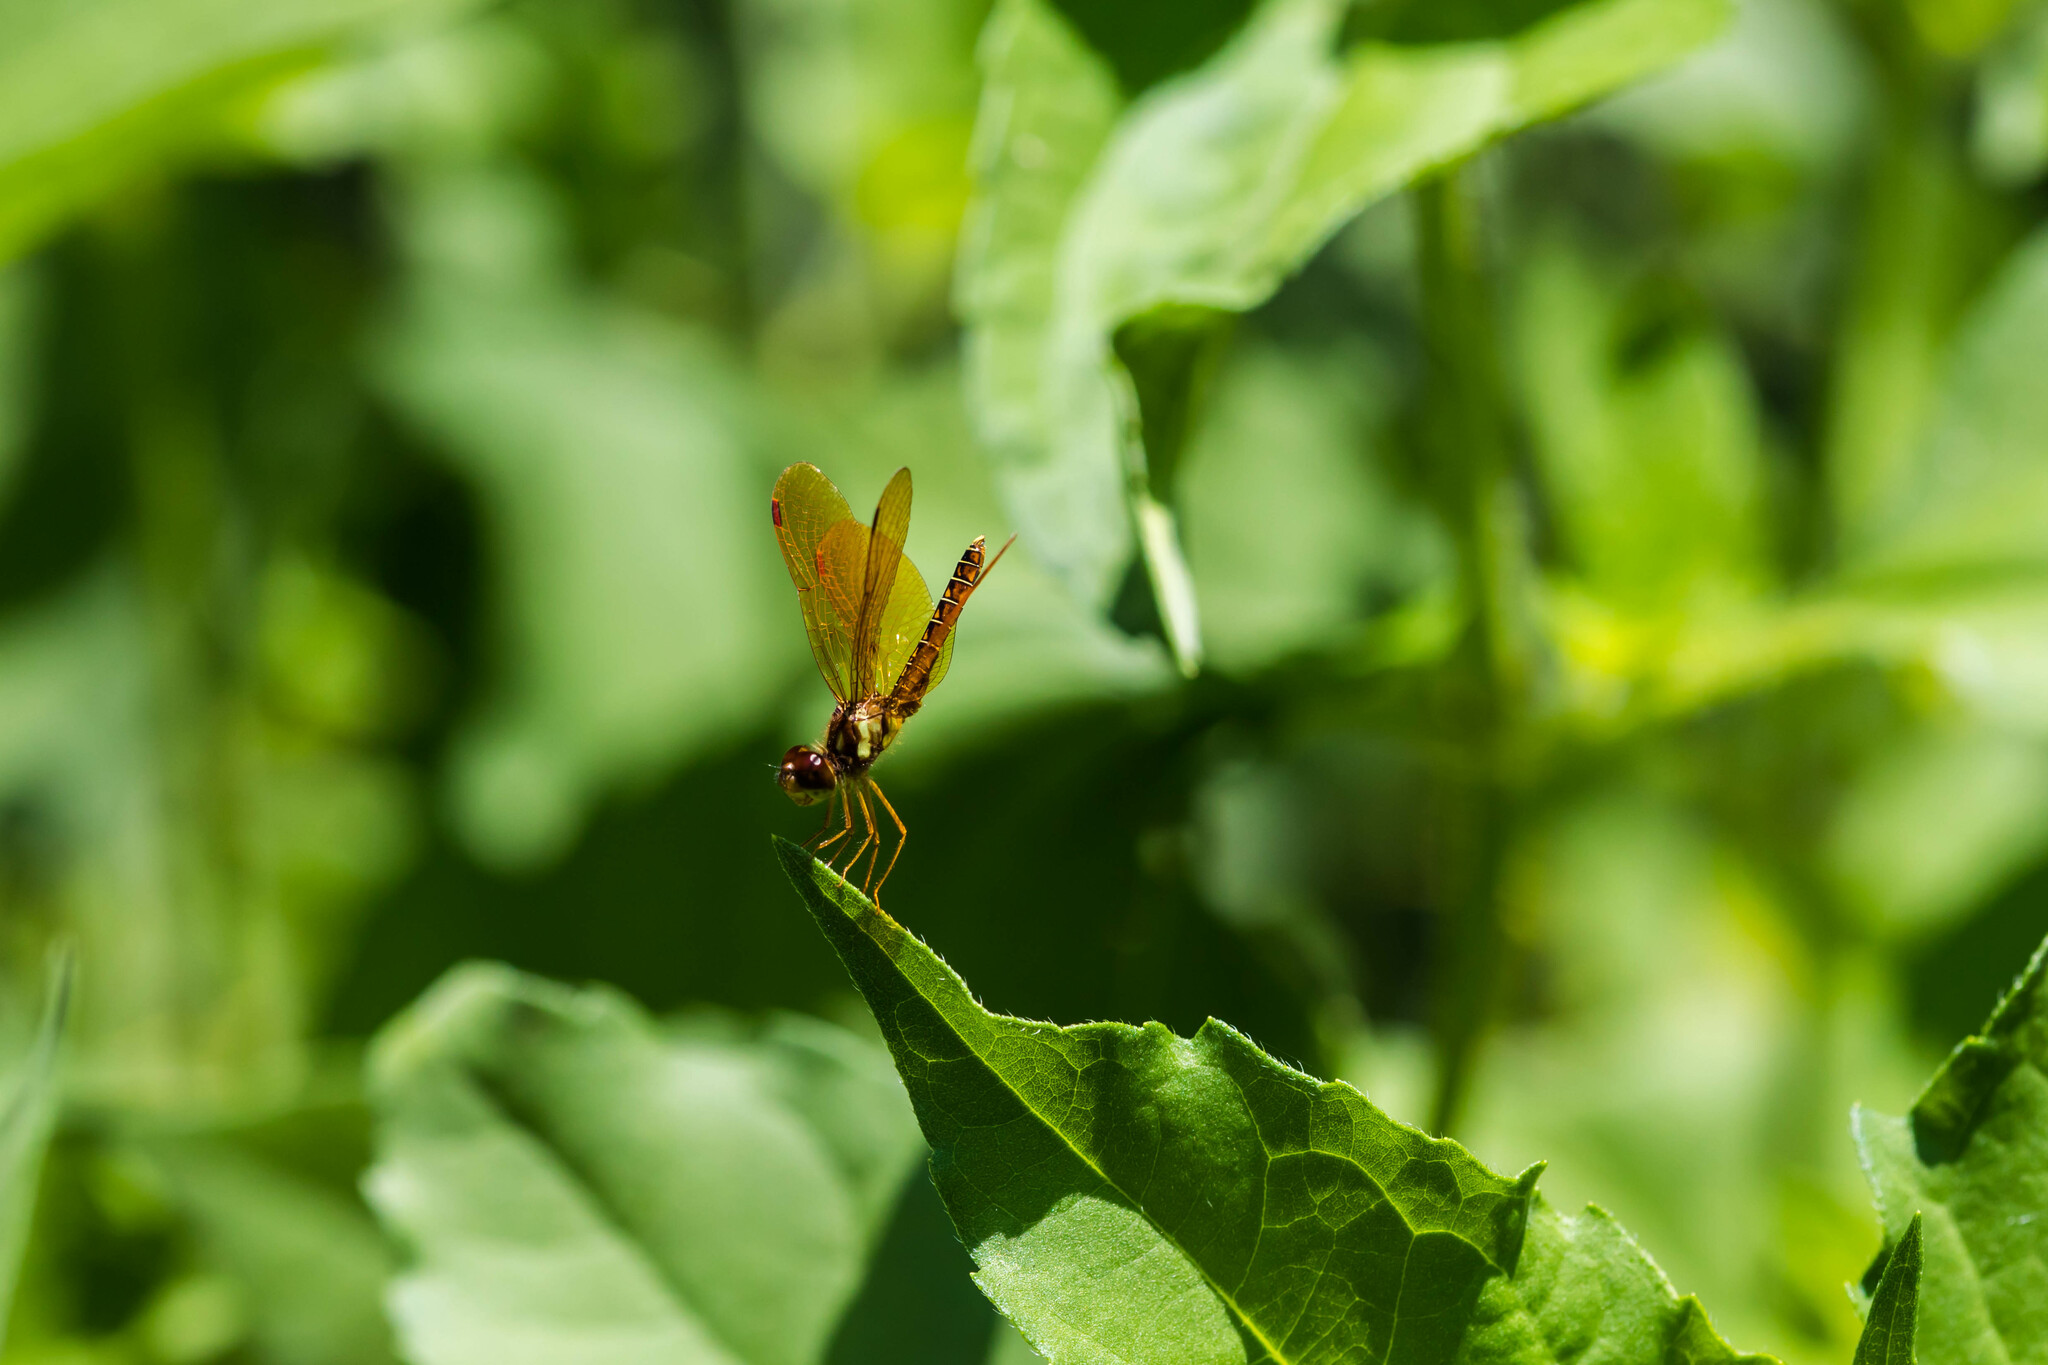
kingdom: Animalia
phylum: Arthropoda
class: Insecta
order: Odonata
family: Libellulidae
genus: Perithemis
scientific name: Perithemis tenera
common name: Eastern amberwing
